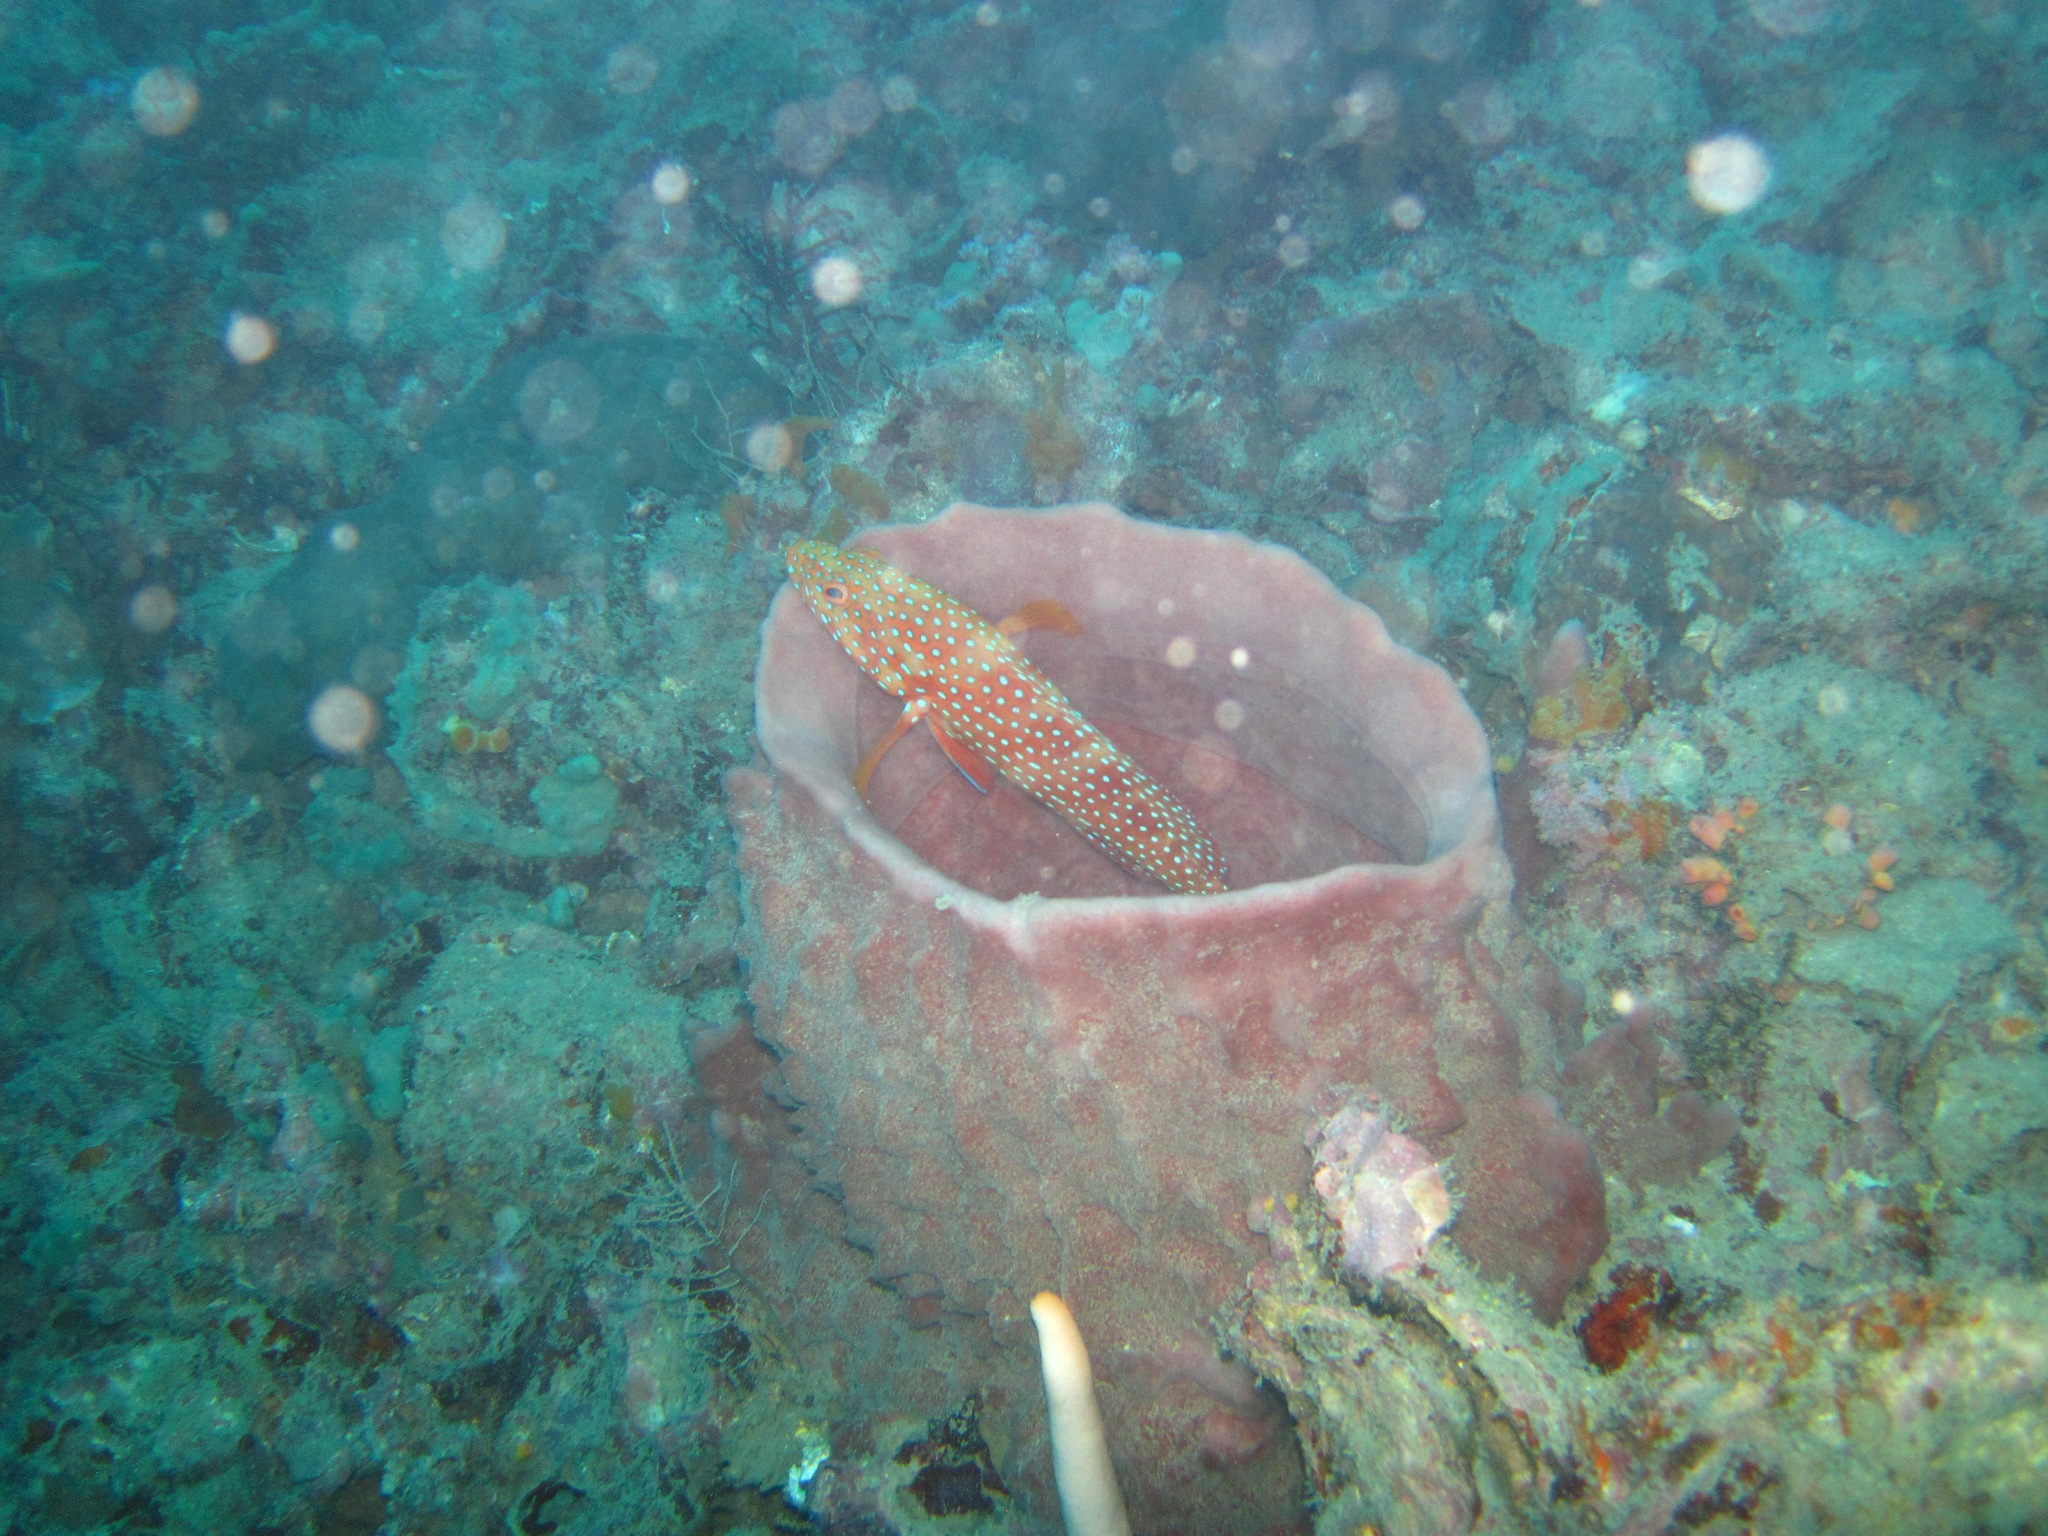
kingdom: Animalia
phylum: Porifera
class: Demospongiae
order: Haplosclerida
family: Petrosiidae
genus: Xestospongia
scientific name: Xestospongia testudinaria
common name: Barrel sponge
